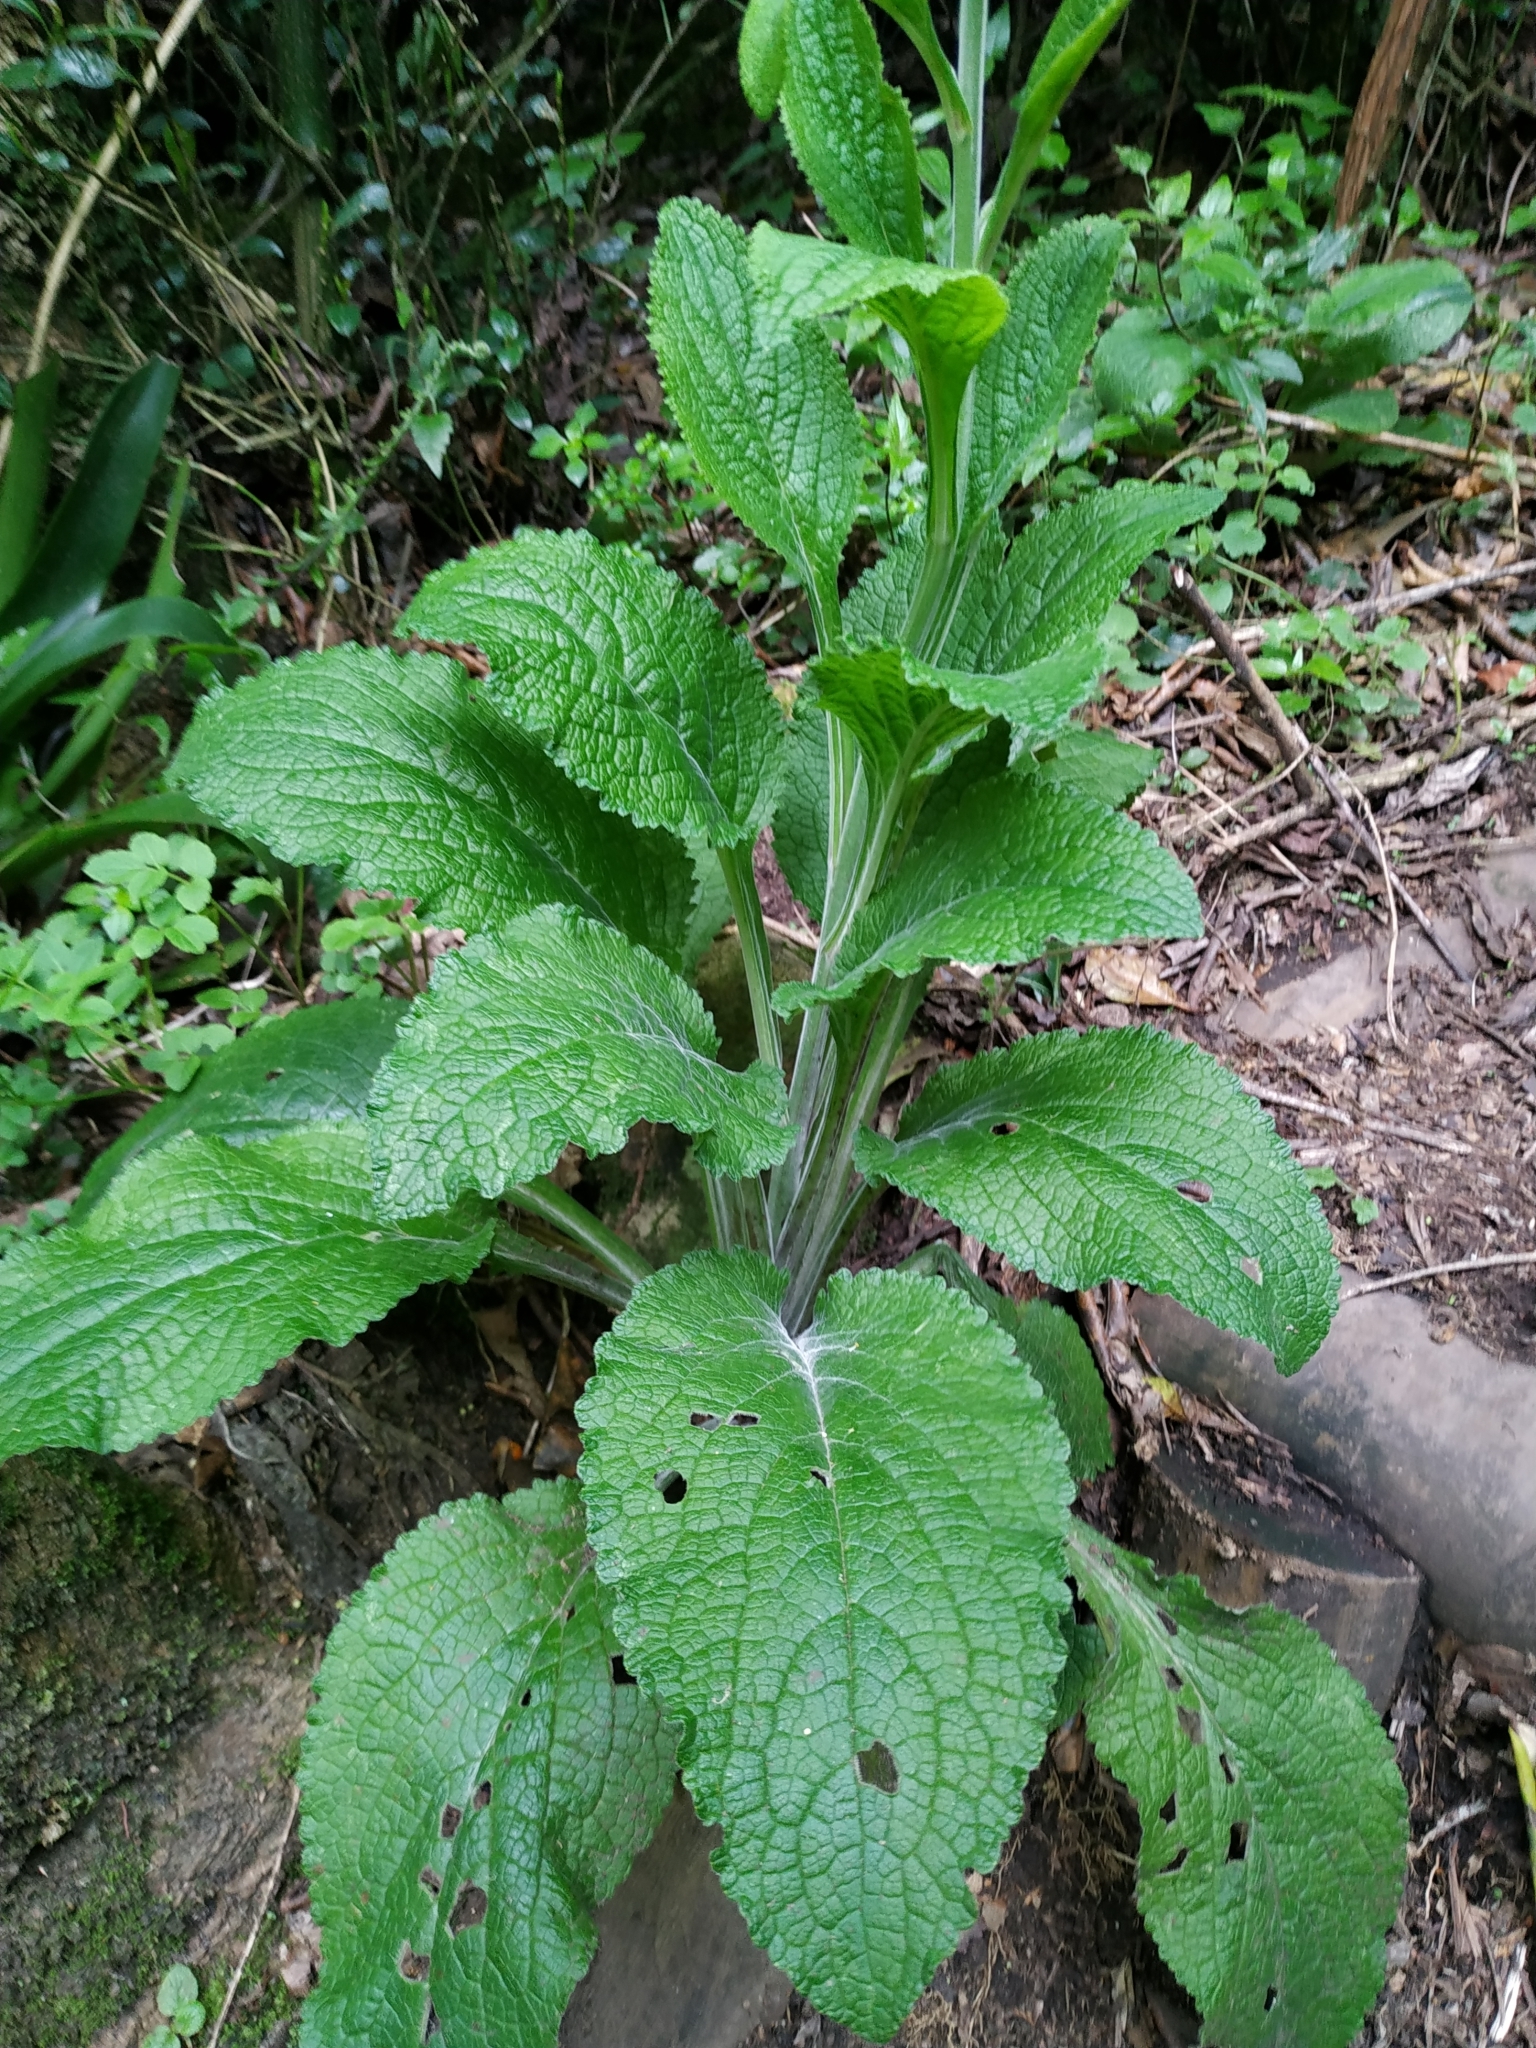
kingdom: Plantae
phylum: Tracheophyta
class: Magnoliopsida
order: Lamiales
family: Plantaginaceae
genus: Digitalis
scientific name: Digitalis purpurea
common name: Foxglove
